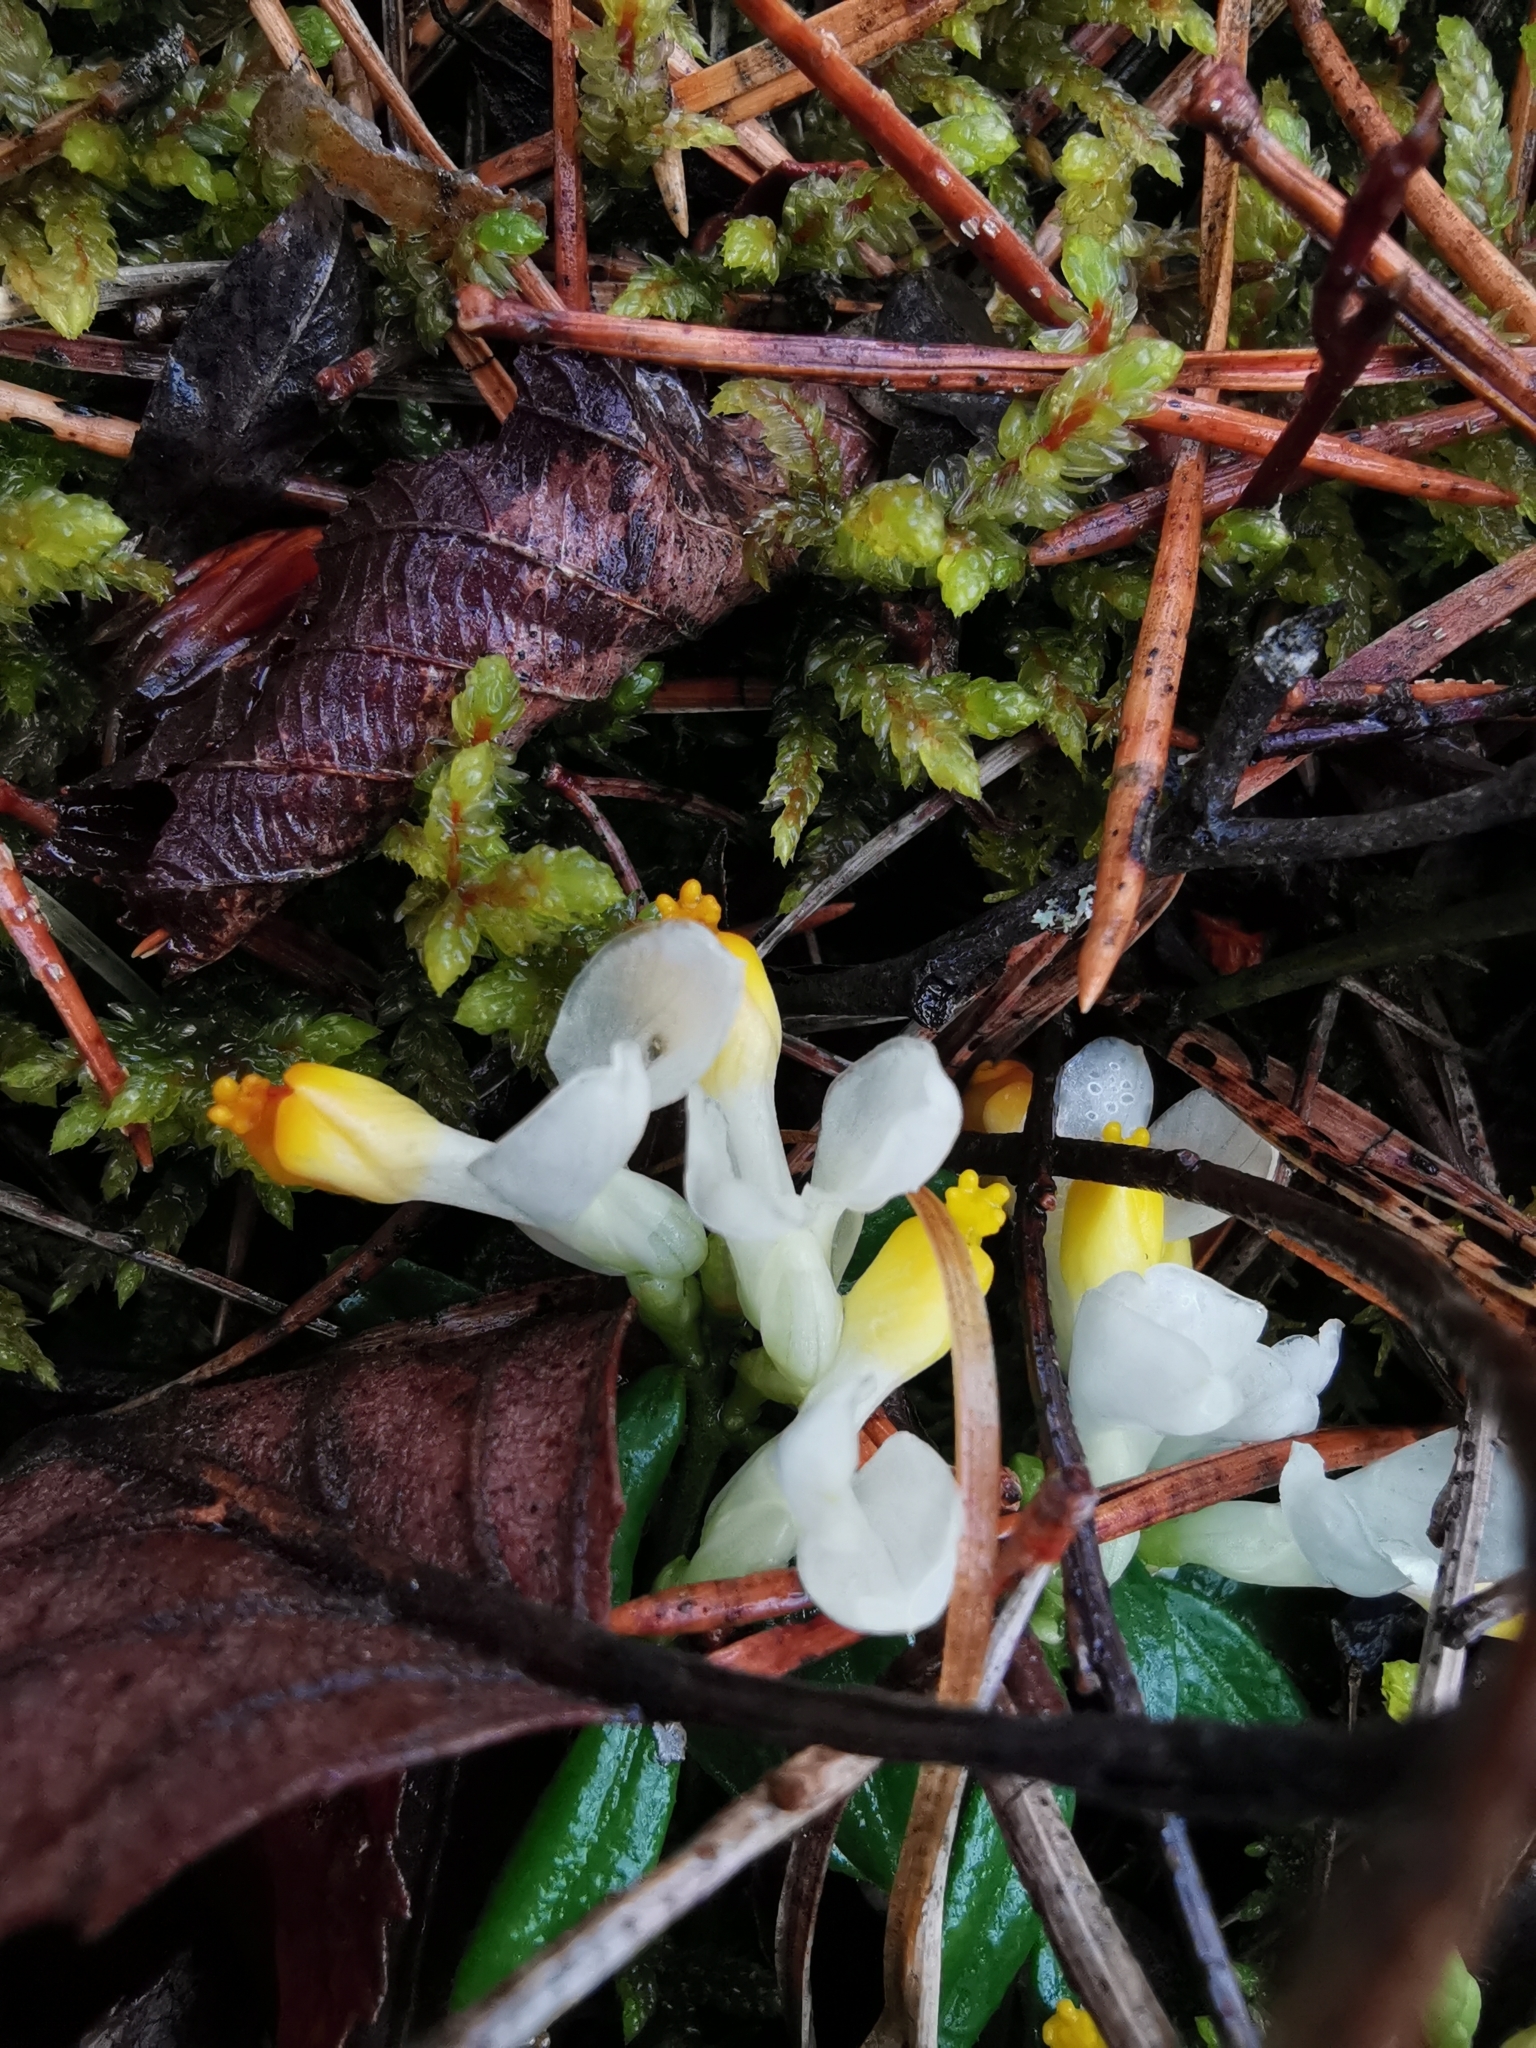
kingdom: Plantae
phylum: Tracheophyta
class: Magnoliopsida
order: Fabales
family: Polygalaceae
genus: Polygaloides
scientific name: Polygaloides chamaebuxus
